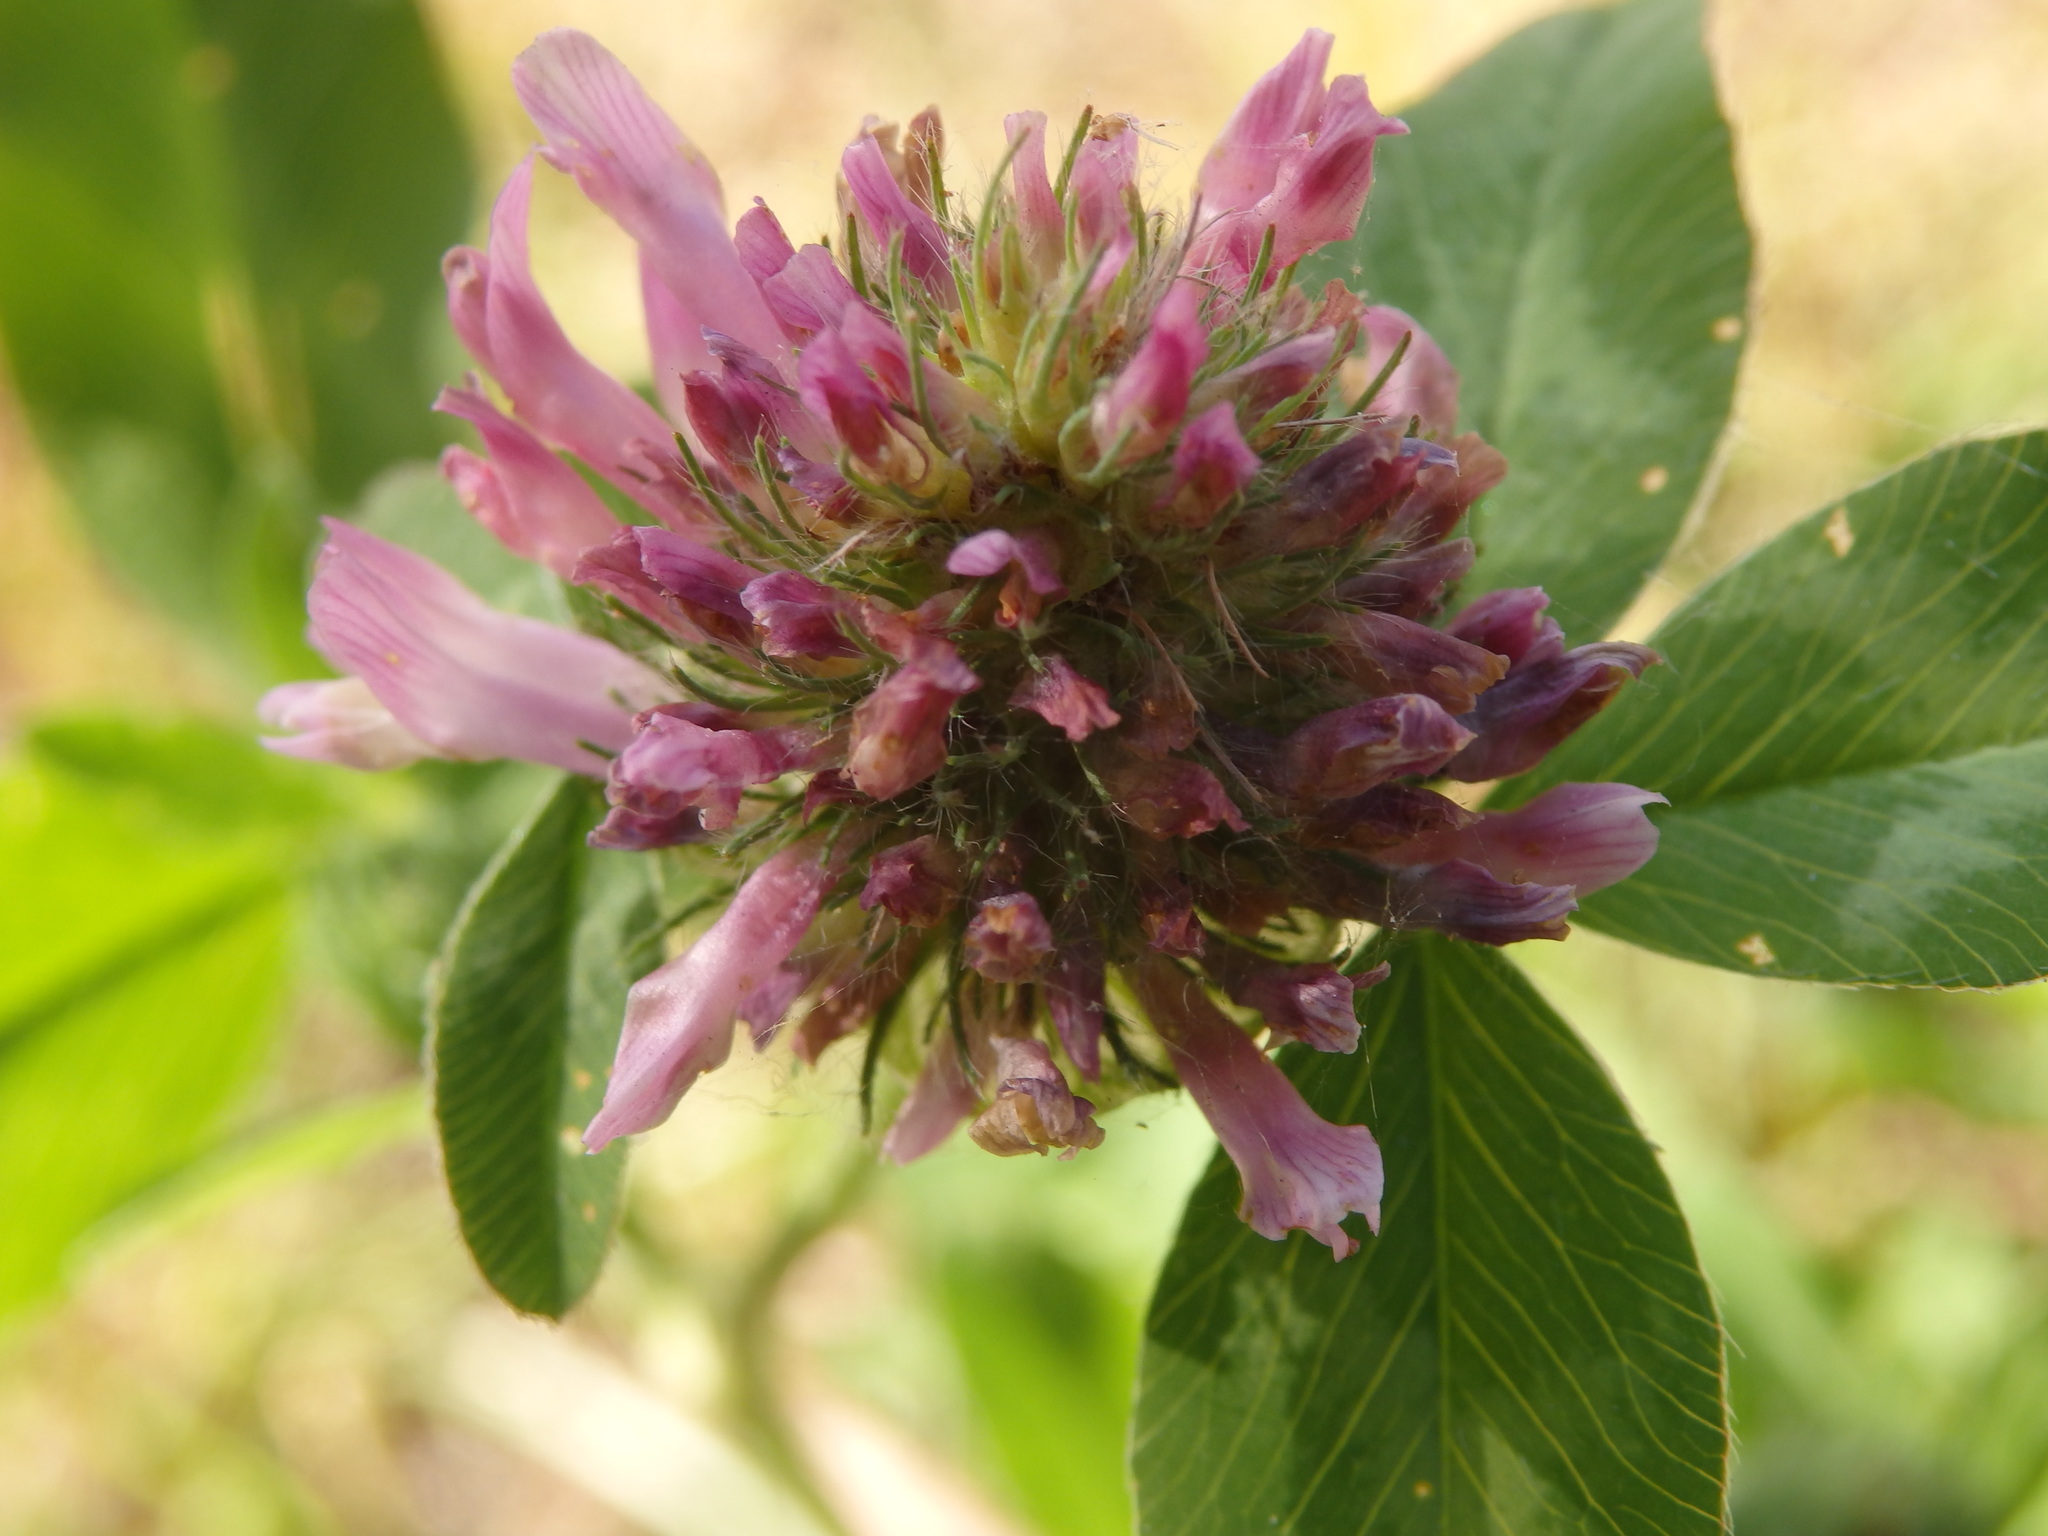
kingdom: Plantae
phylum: Tracheophyta
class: Magnoliopsida
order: Fabales
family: Fabaceae
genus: Trifolium
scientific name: Trifolium pratense
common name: Red clover
